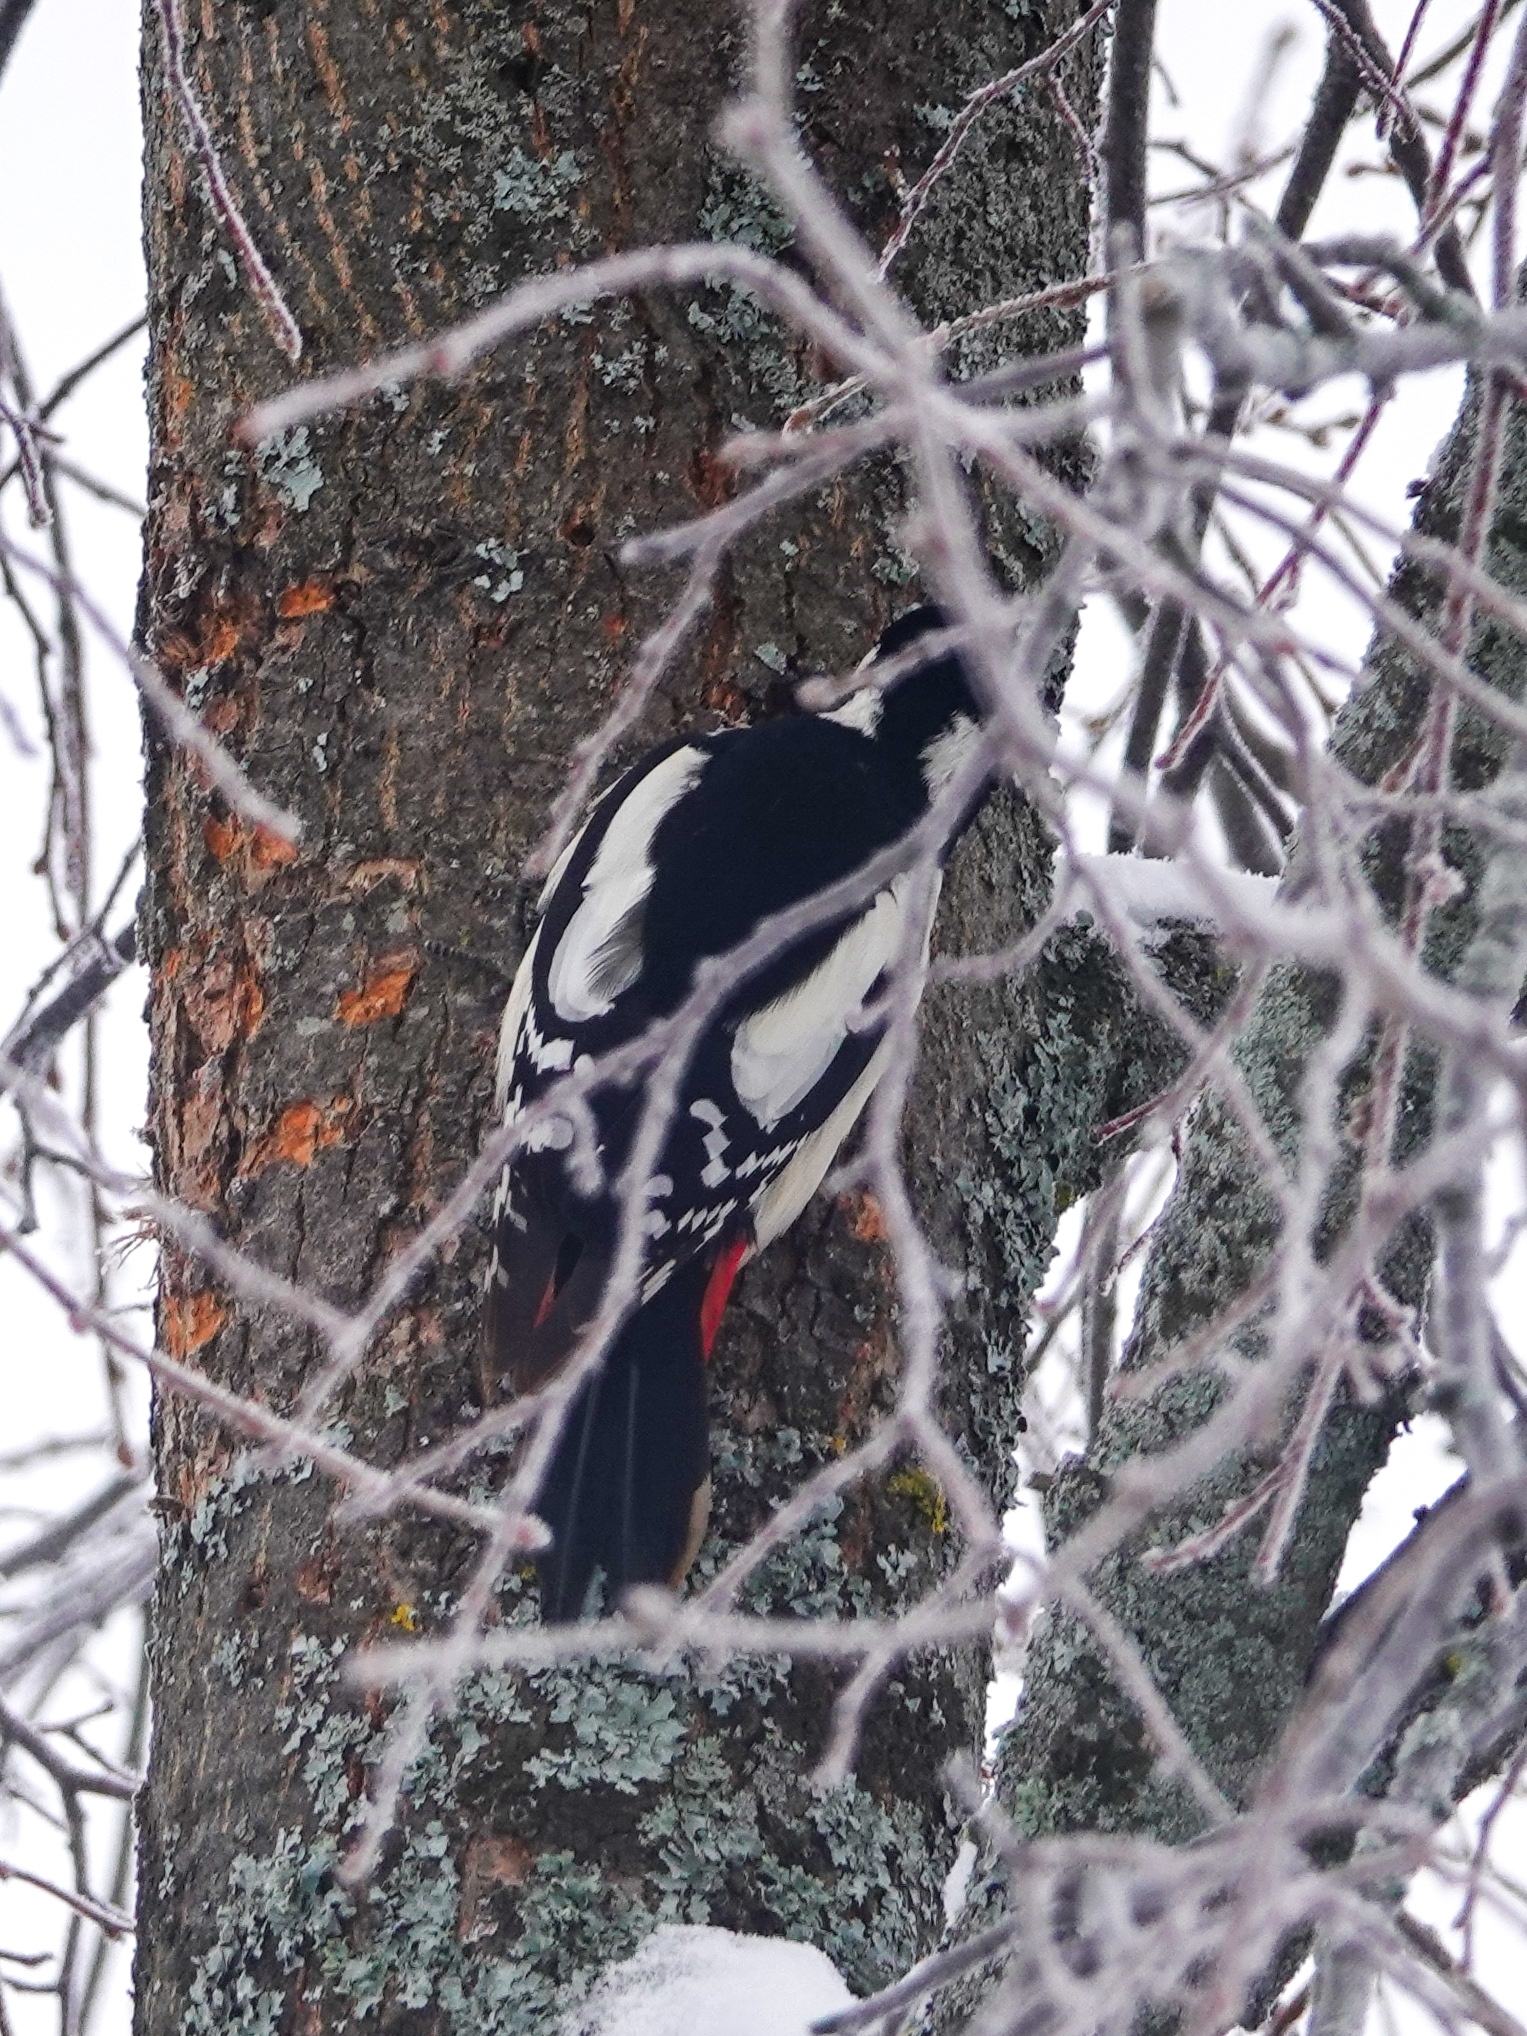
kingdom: Animalia
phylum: Chordata
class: Aves
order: Piciformes
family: Picidae
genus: Dendrocopos
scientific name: Dendrocopos major
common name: Great spotted woodpecker
